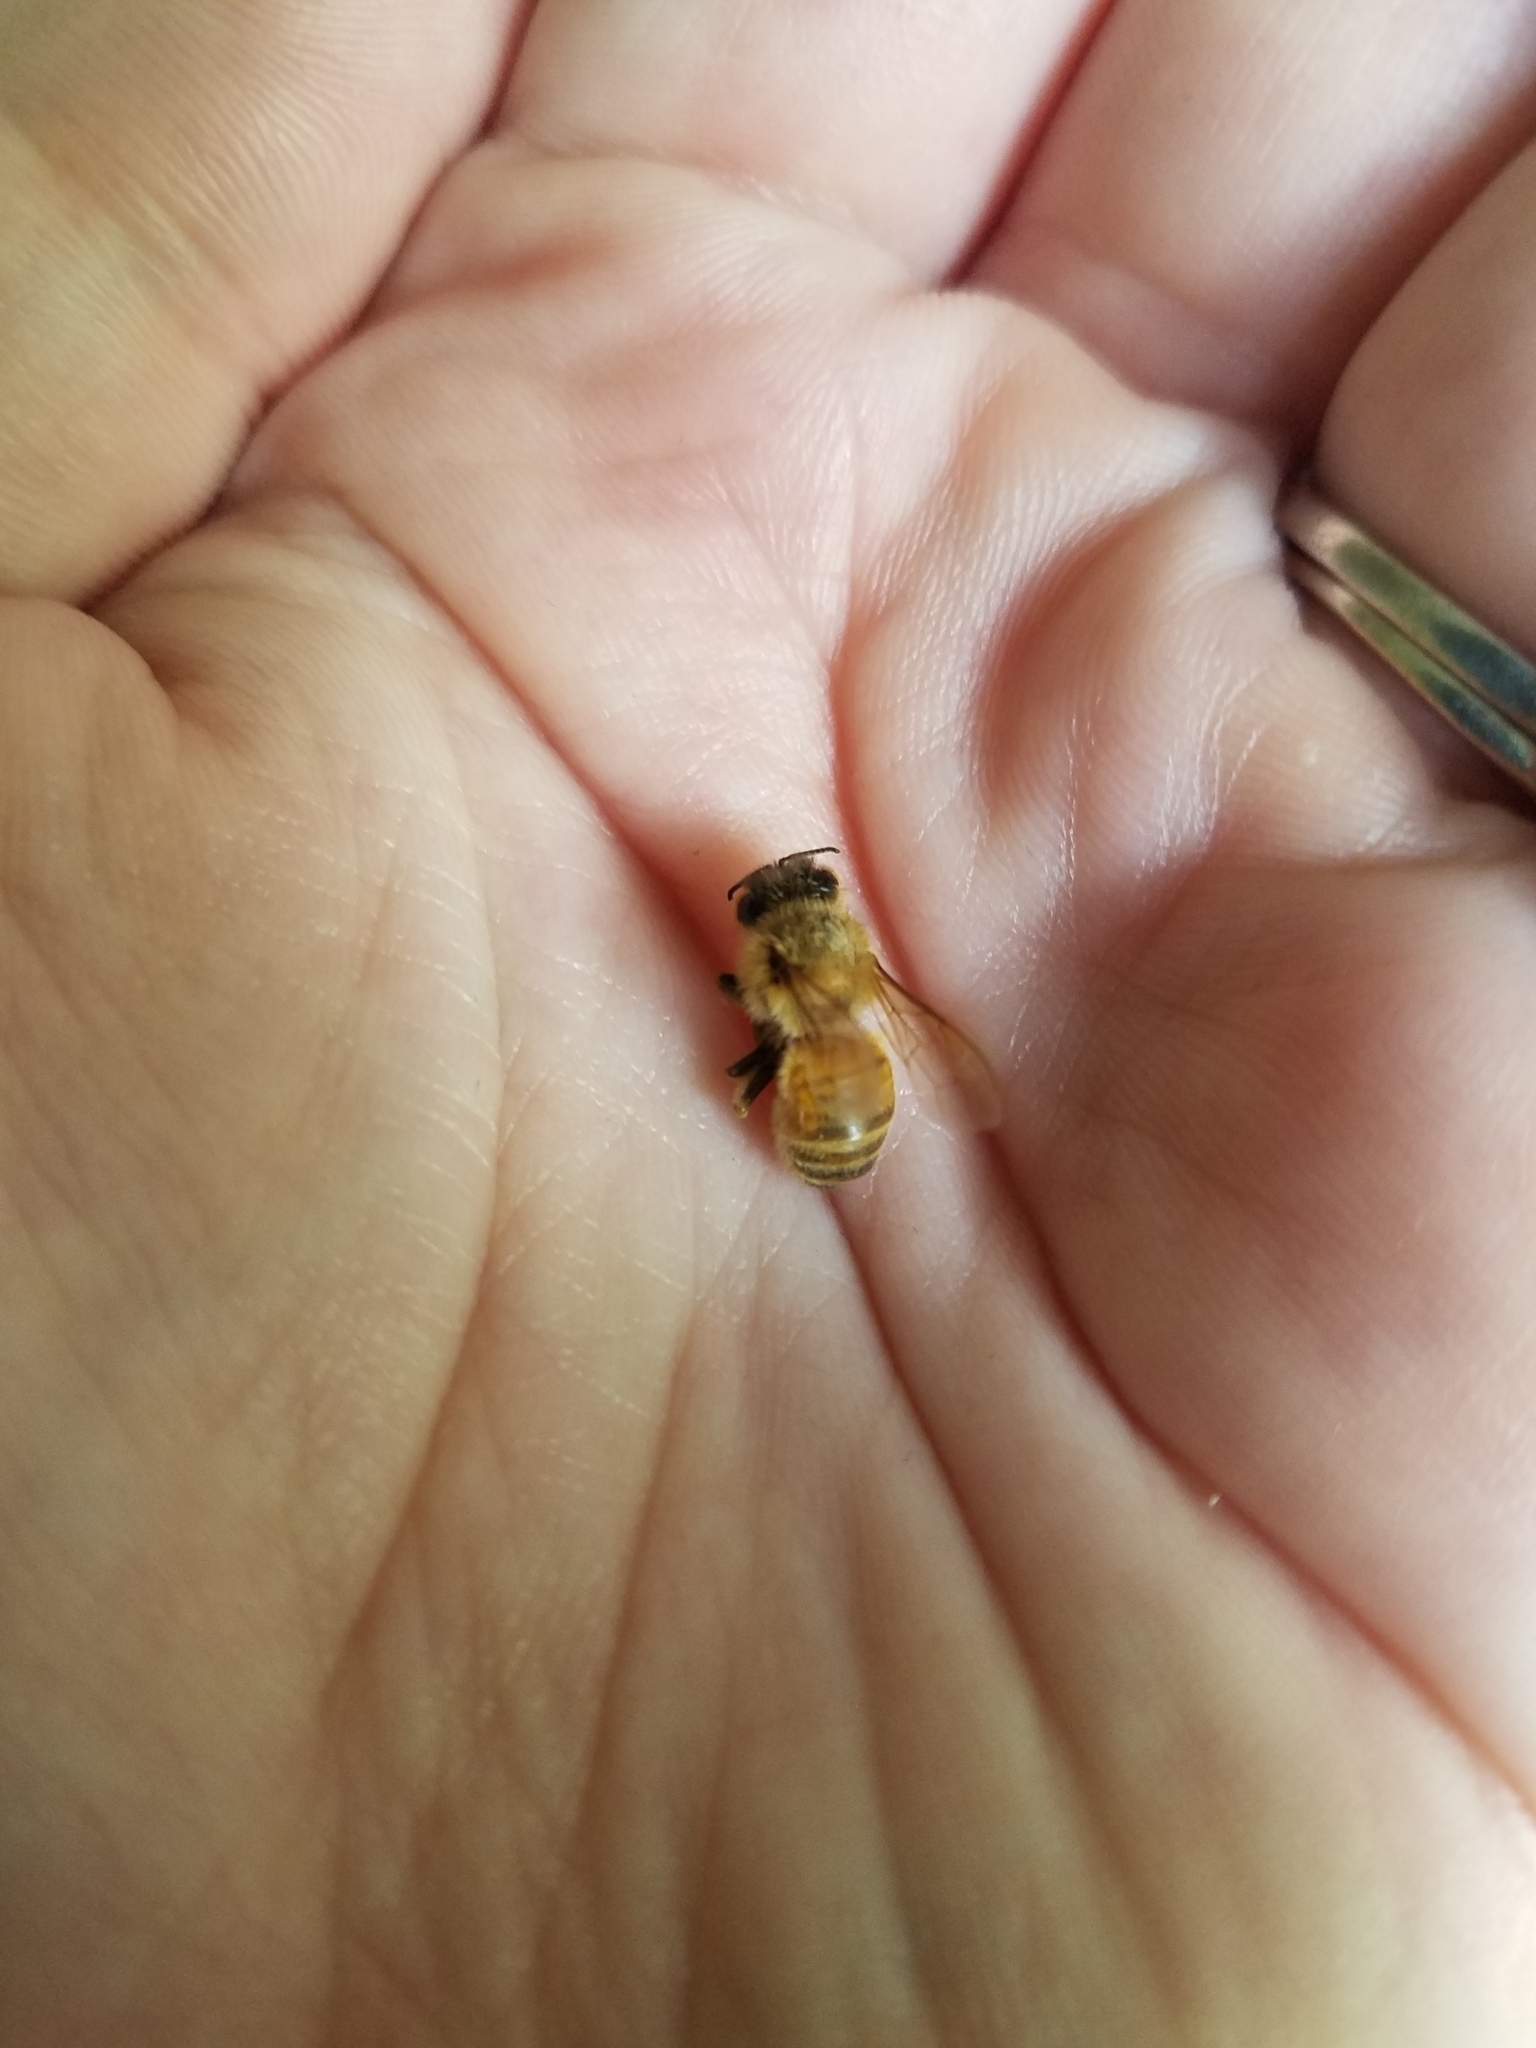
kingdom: Animalia
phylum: Arthropoda
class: Insecta
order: Hymenoptera
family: Apidae
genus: Apis
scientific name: Apis mellifera
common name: Honey bee
